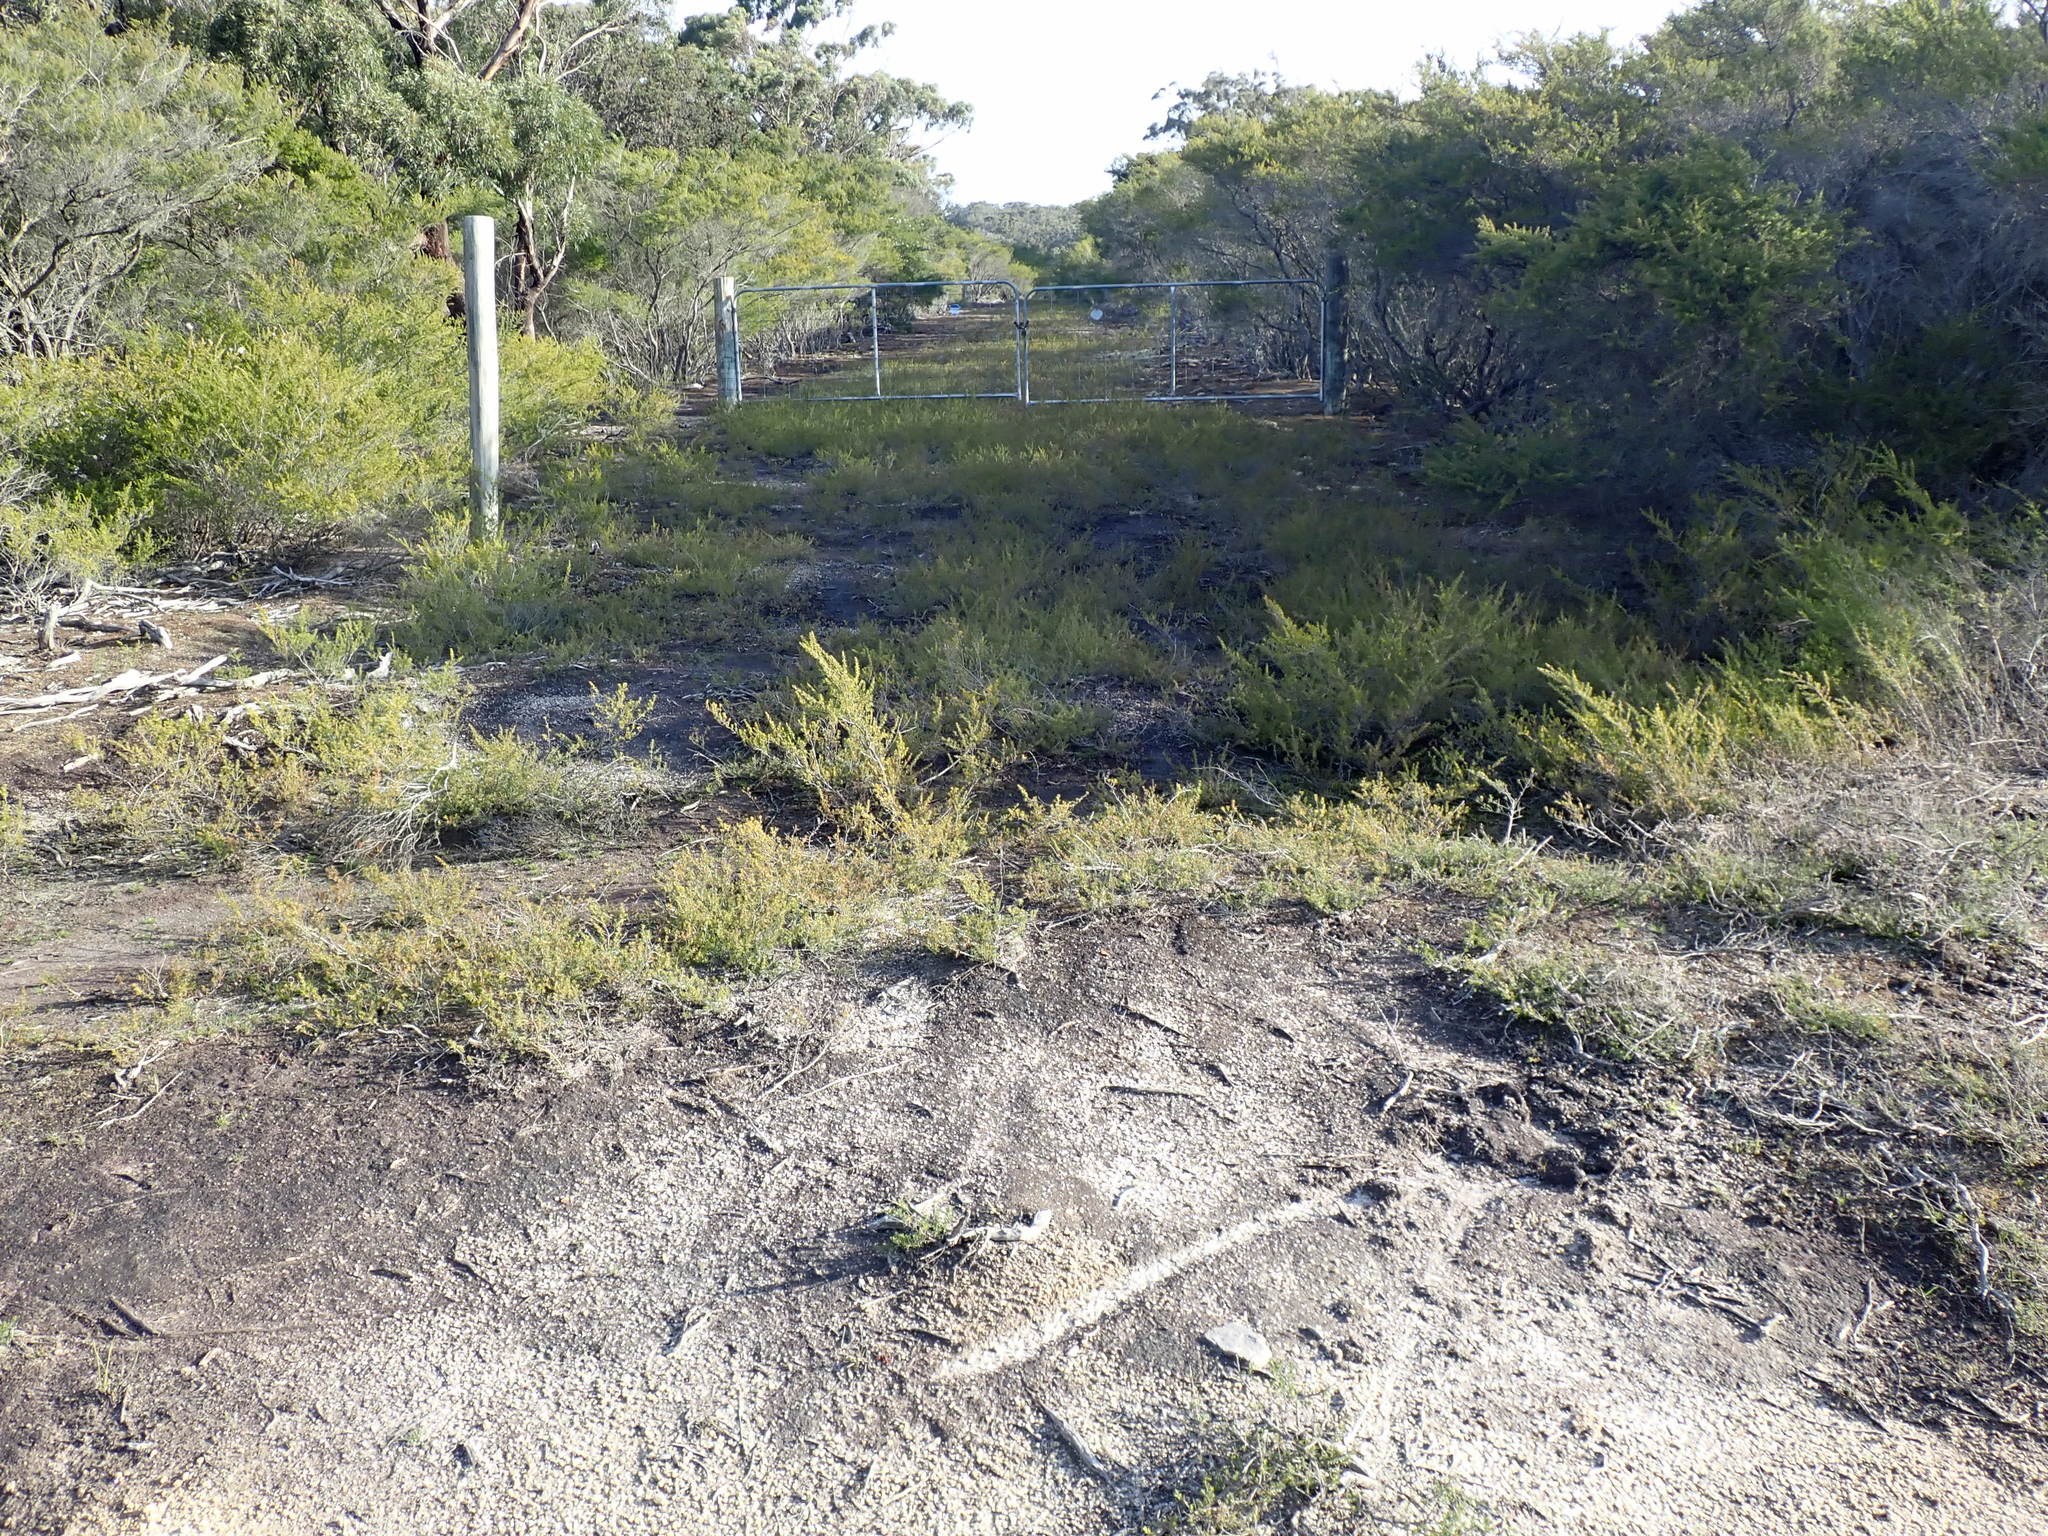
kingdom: Plantae
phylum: Tracheophyta
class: Magnoliopsida
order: Asterales
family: Stylidiaceae
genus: Stylidium
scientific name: Stylidium perpusillum
